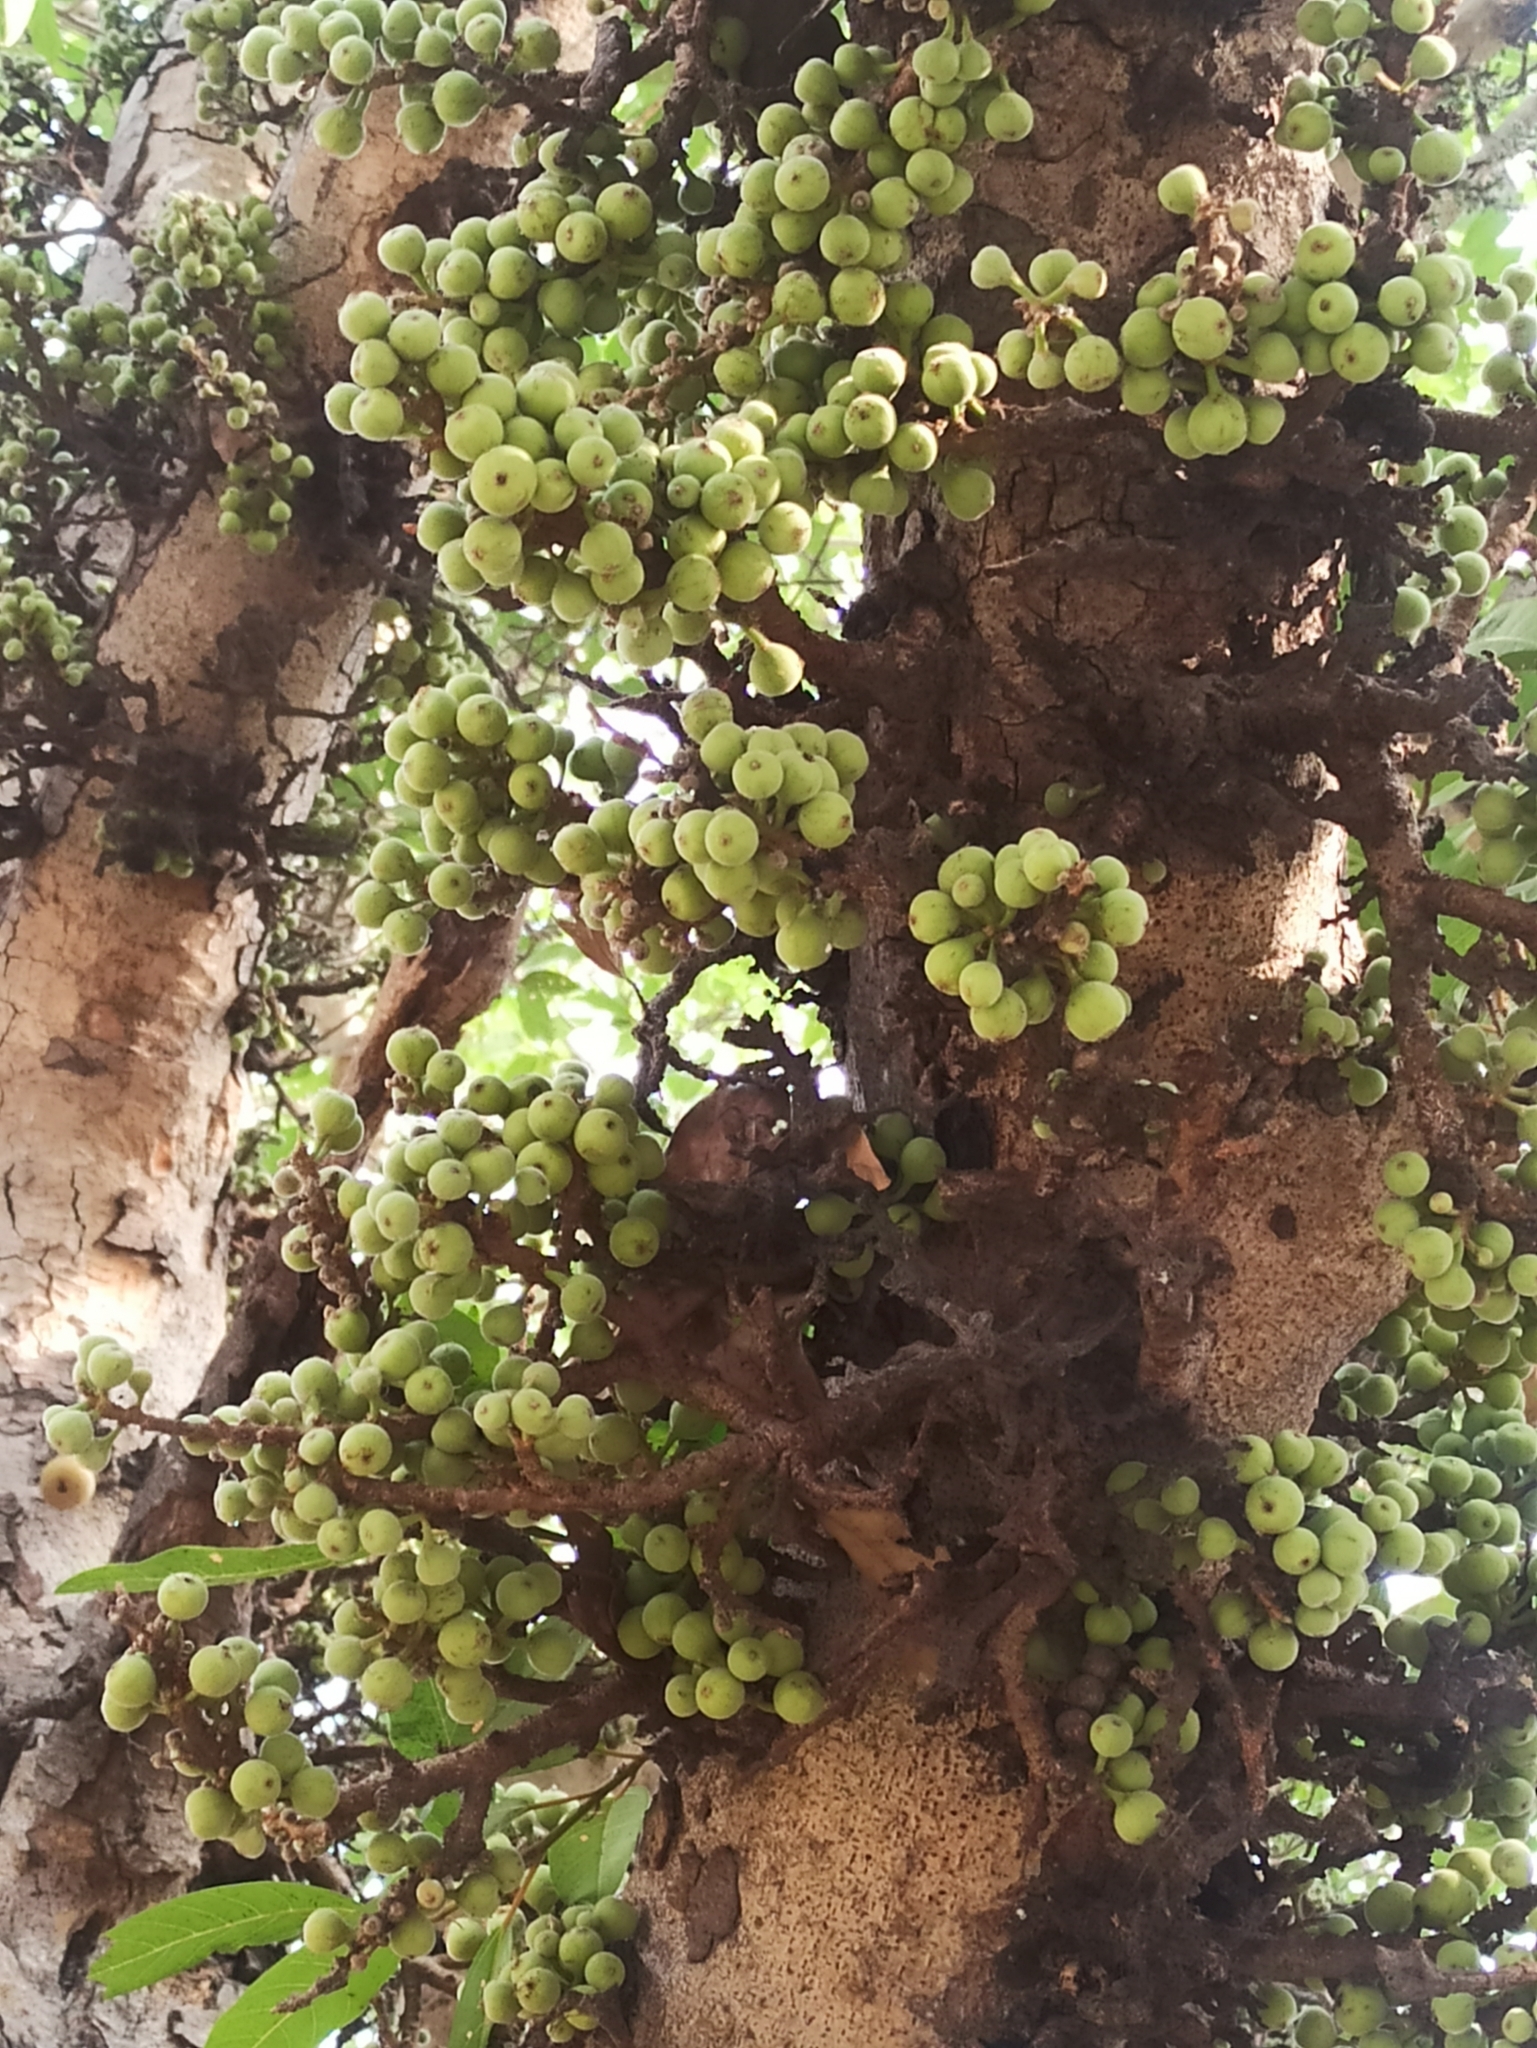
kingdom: Plantae
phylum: Tracheophyta
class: Magnoliopsida
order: Rosales
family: Moraceae
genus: Ficus
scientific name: Ficus racemosa
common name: Cluster fig
